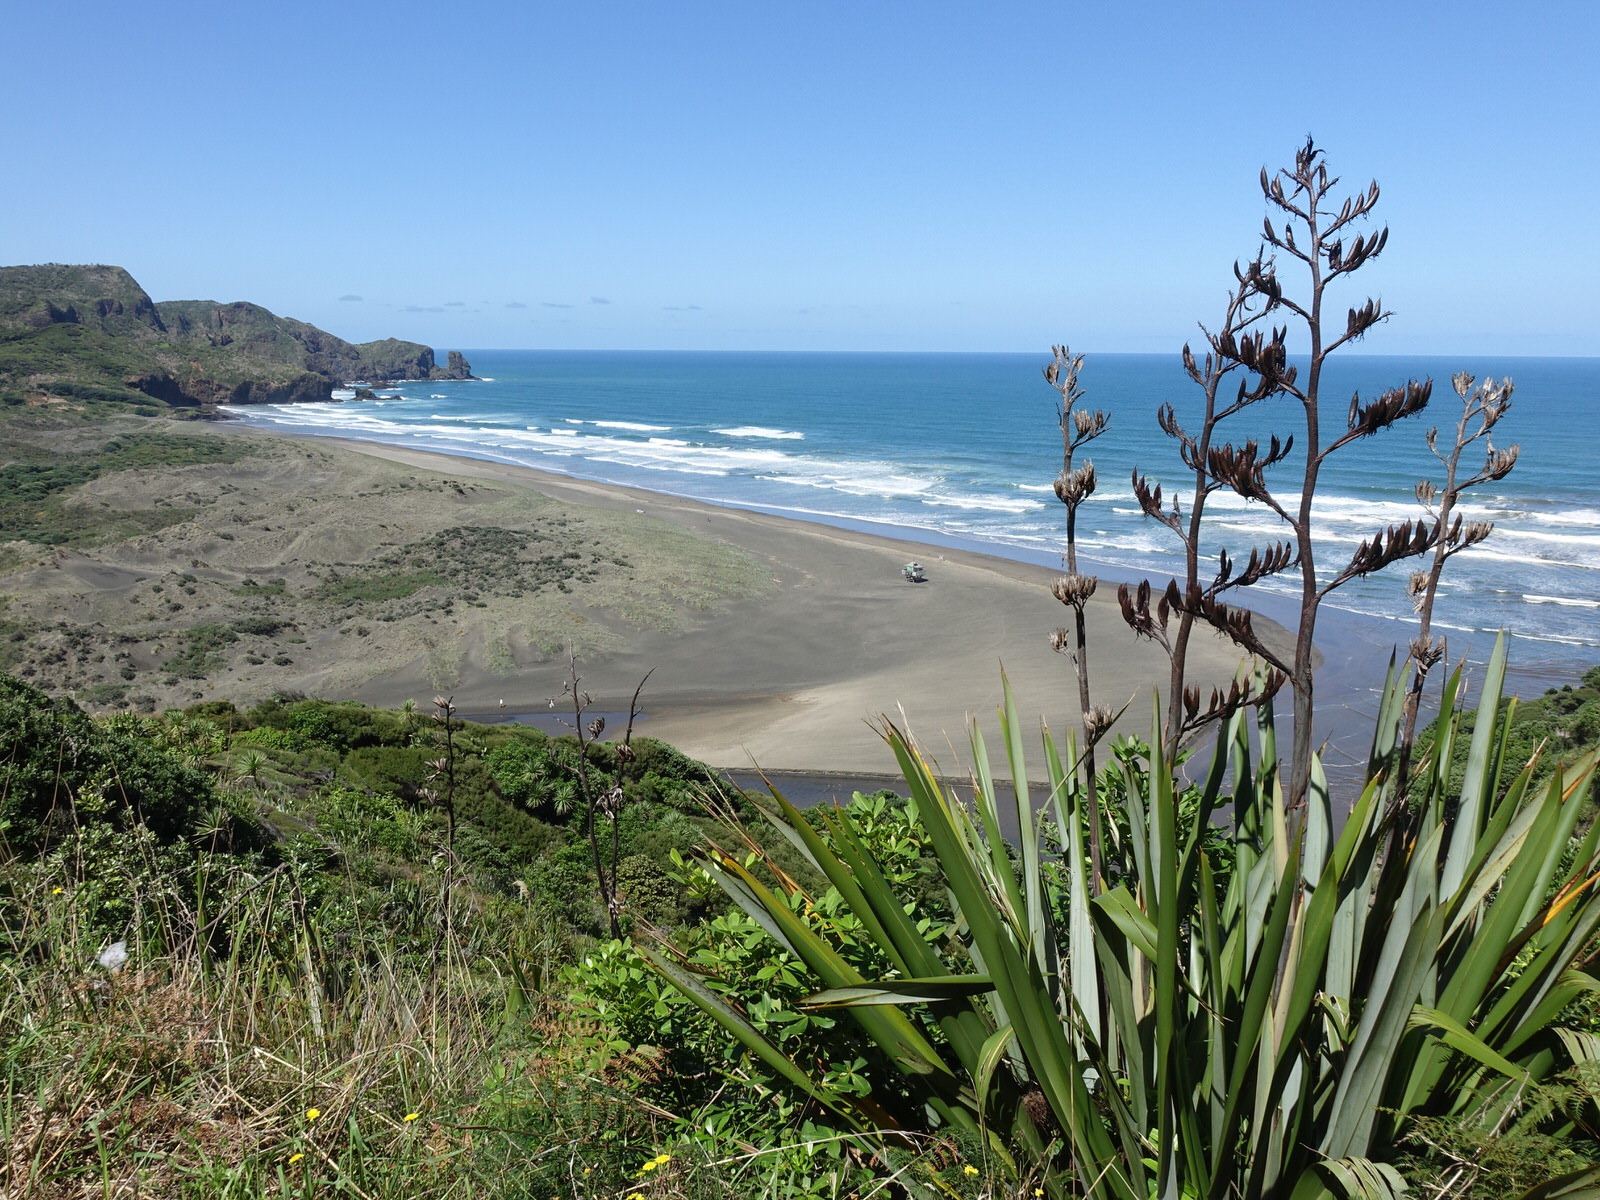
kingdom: Plantae
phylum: Tracheophyta
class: Liliopsida
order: Asparagales
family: Asphodelaceae
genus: Phormium
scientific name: Phormium tenax
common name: New zealand flax
